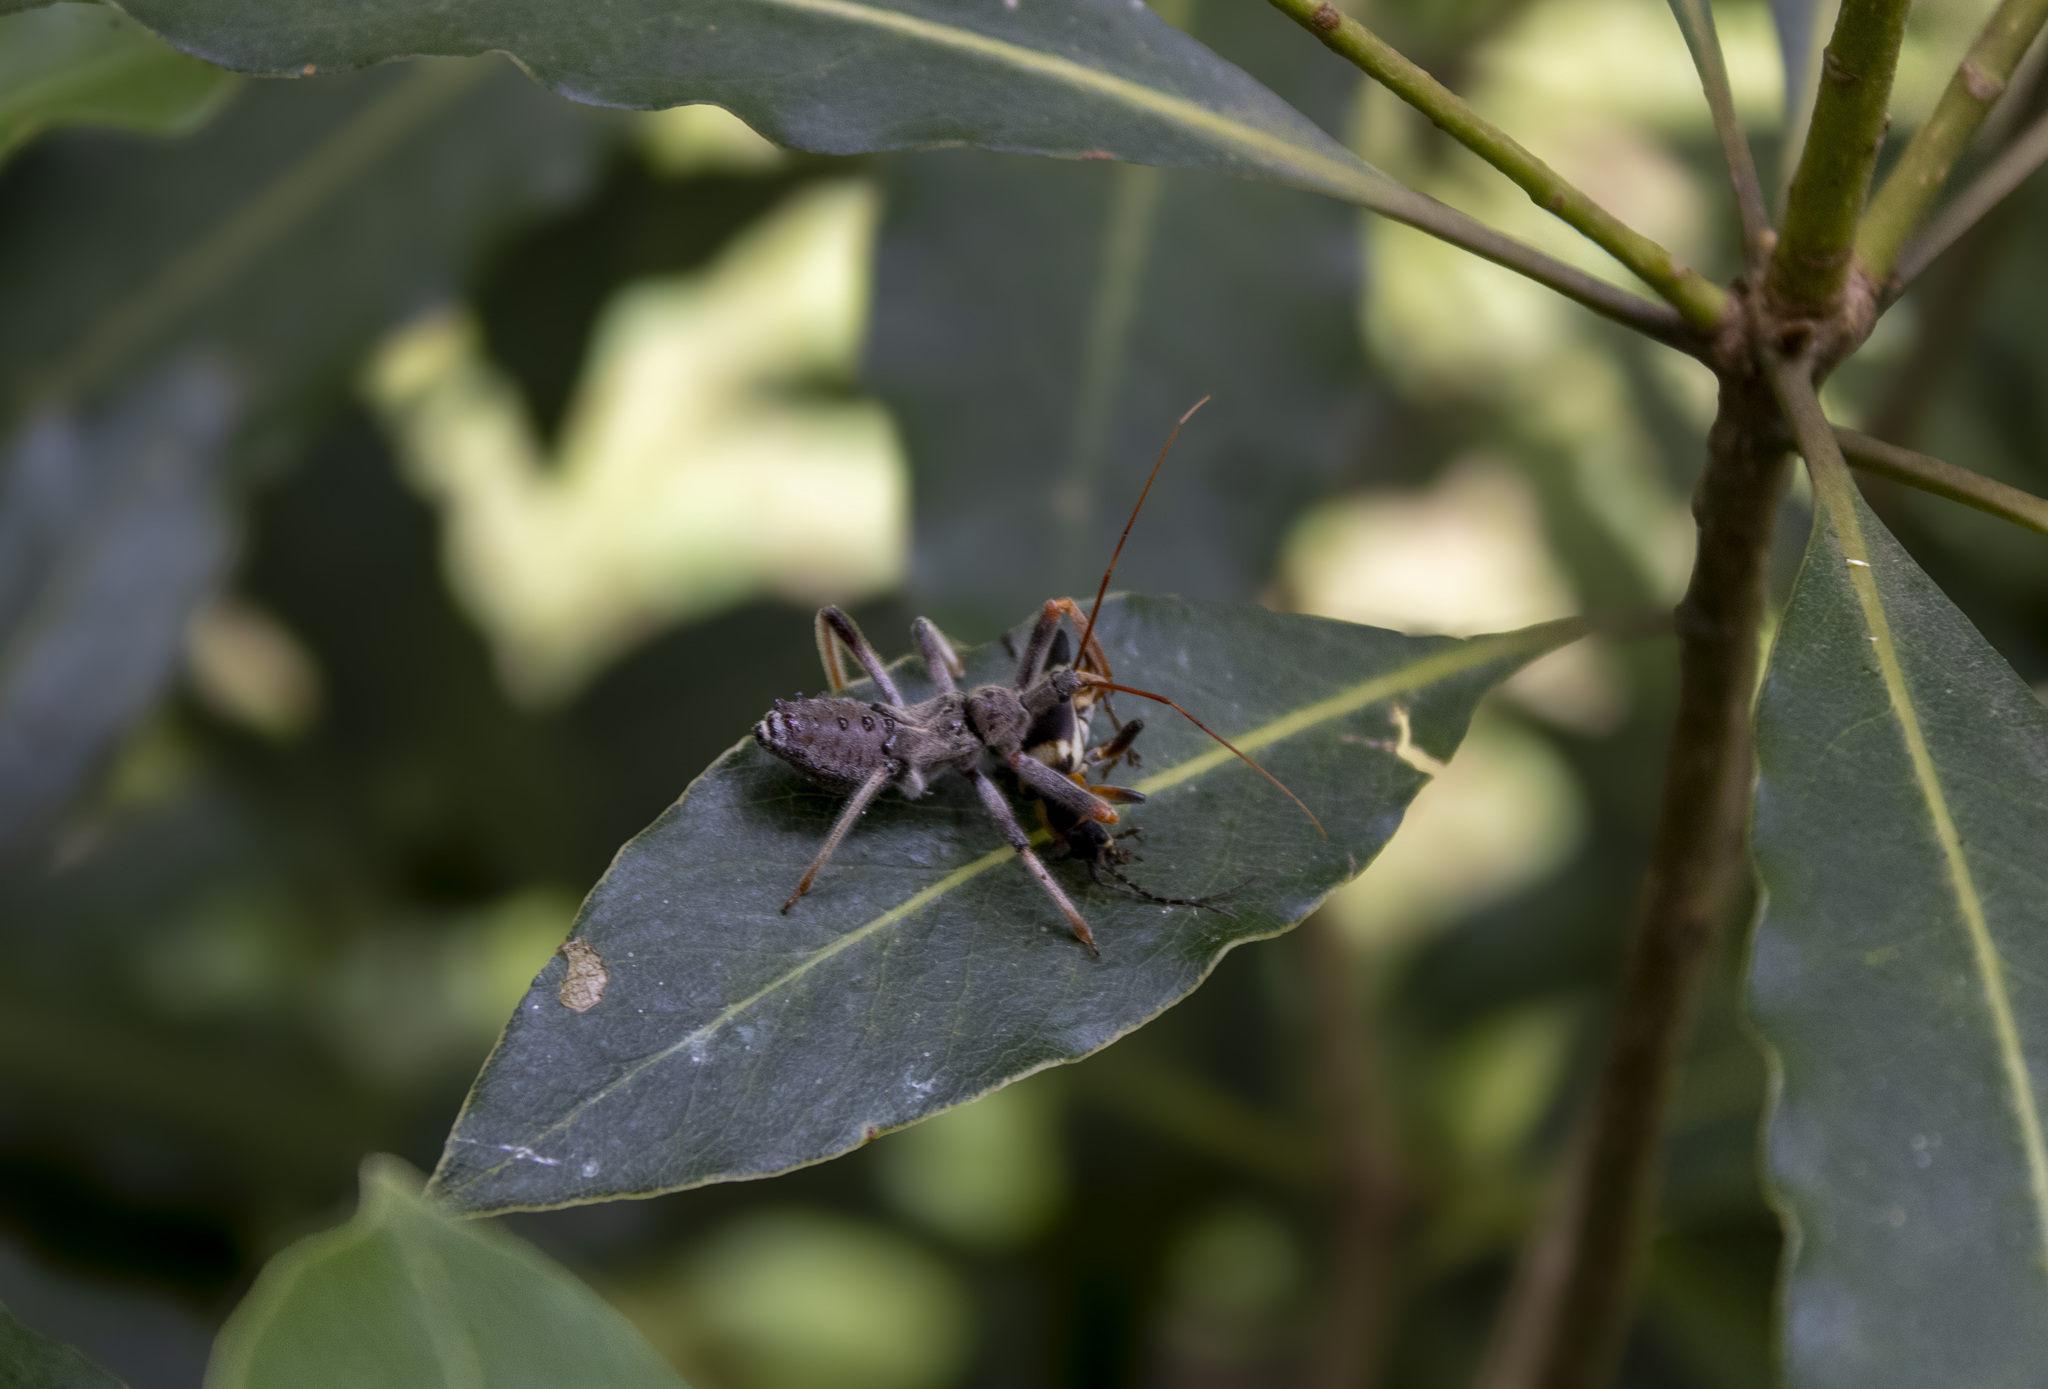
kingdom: Animalia
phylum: Arthropoda
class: Insecta
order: Hemiptera
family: Reduviidae
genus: Arilus
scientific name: Arilus carinatus
